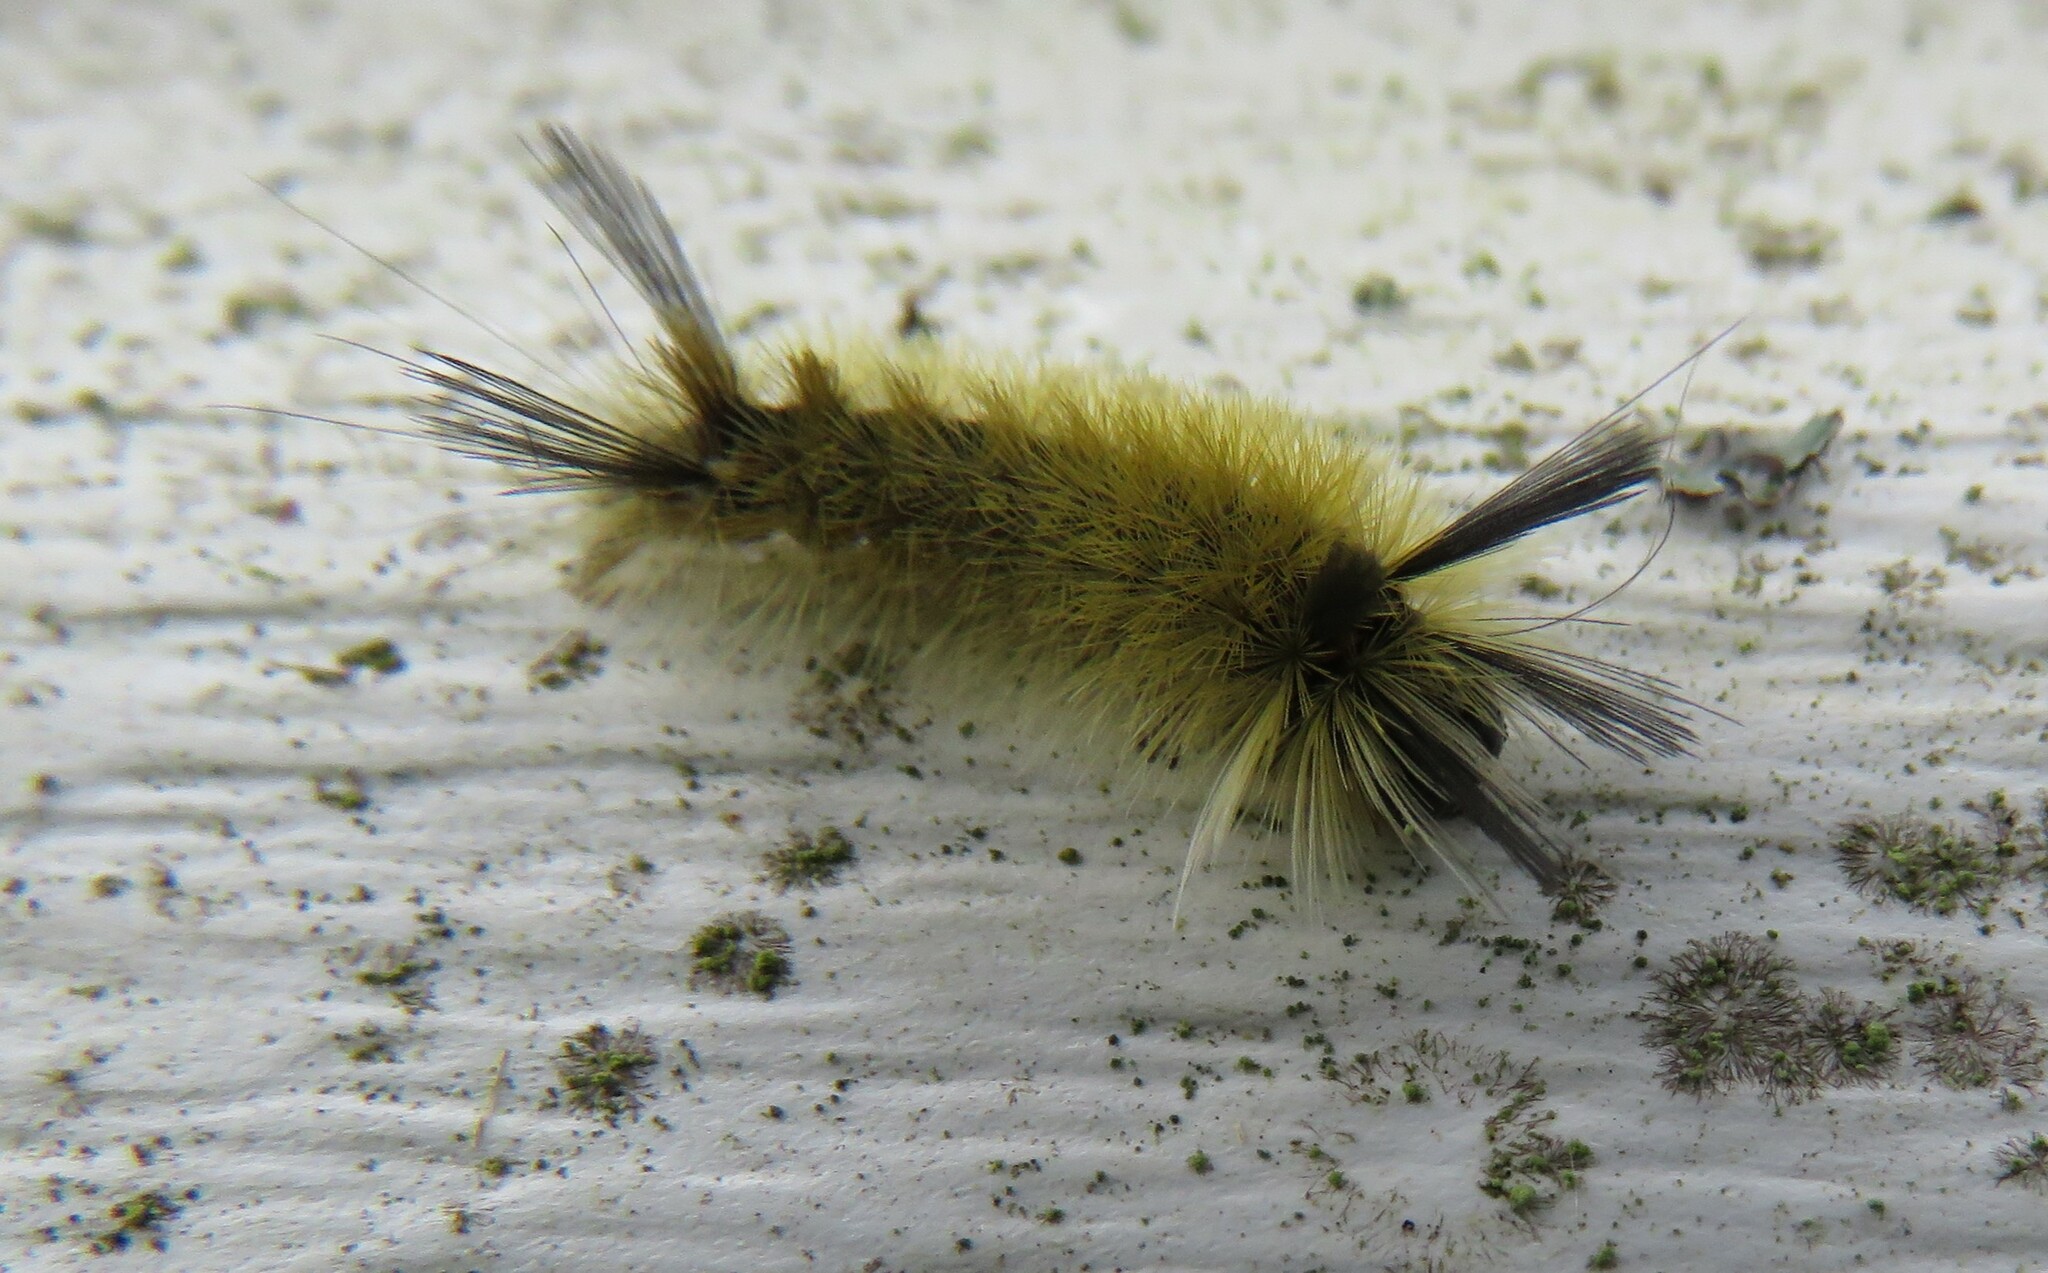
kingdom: Animalia
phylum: Arthropoda
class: Insecta
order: Lepidoptera
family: Erebidae
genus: Halysidota
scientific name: Halysidota tessellaris
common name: Banded tussock moth
